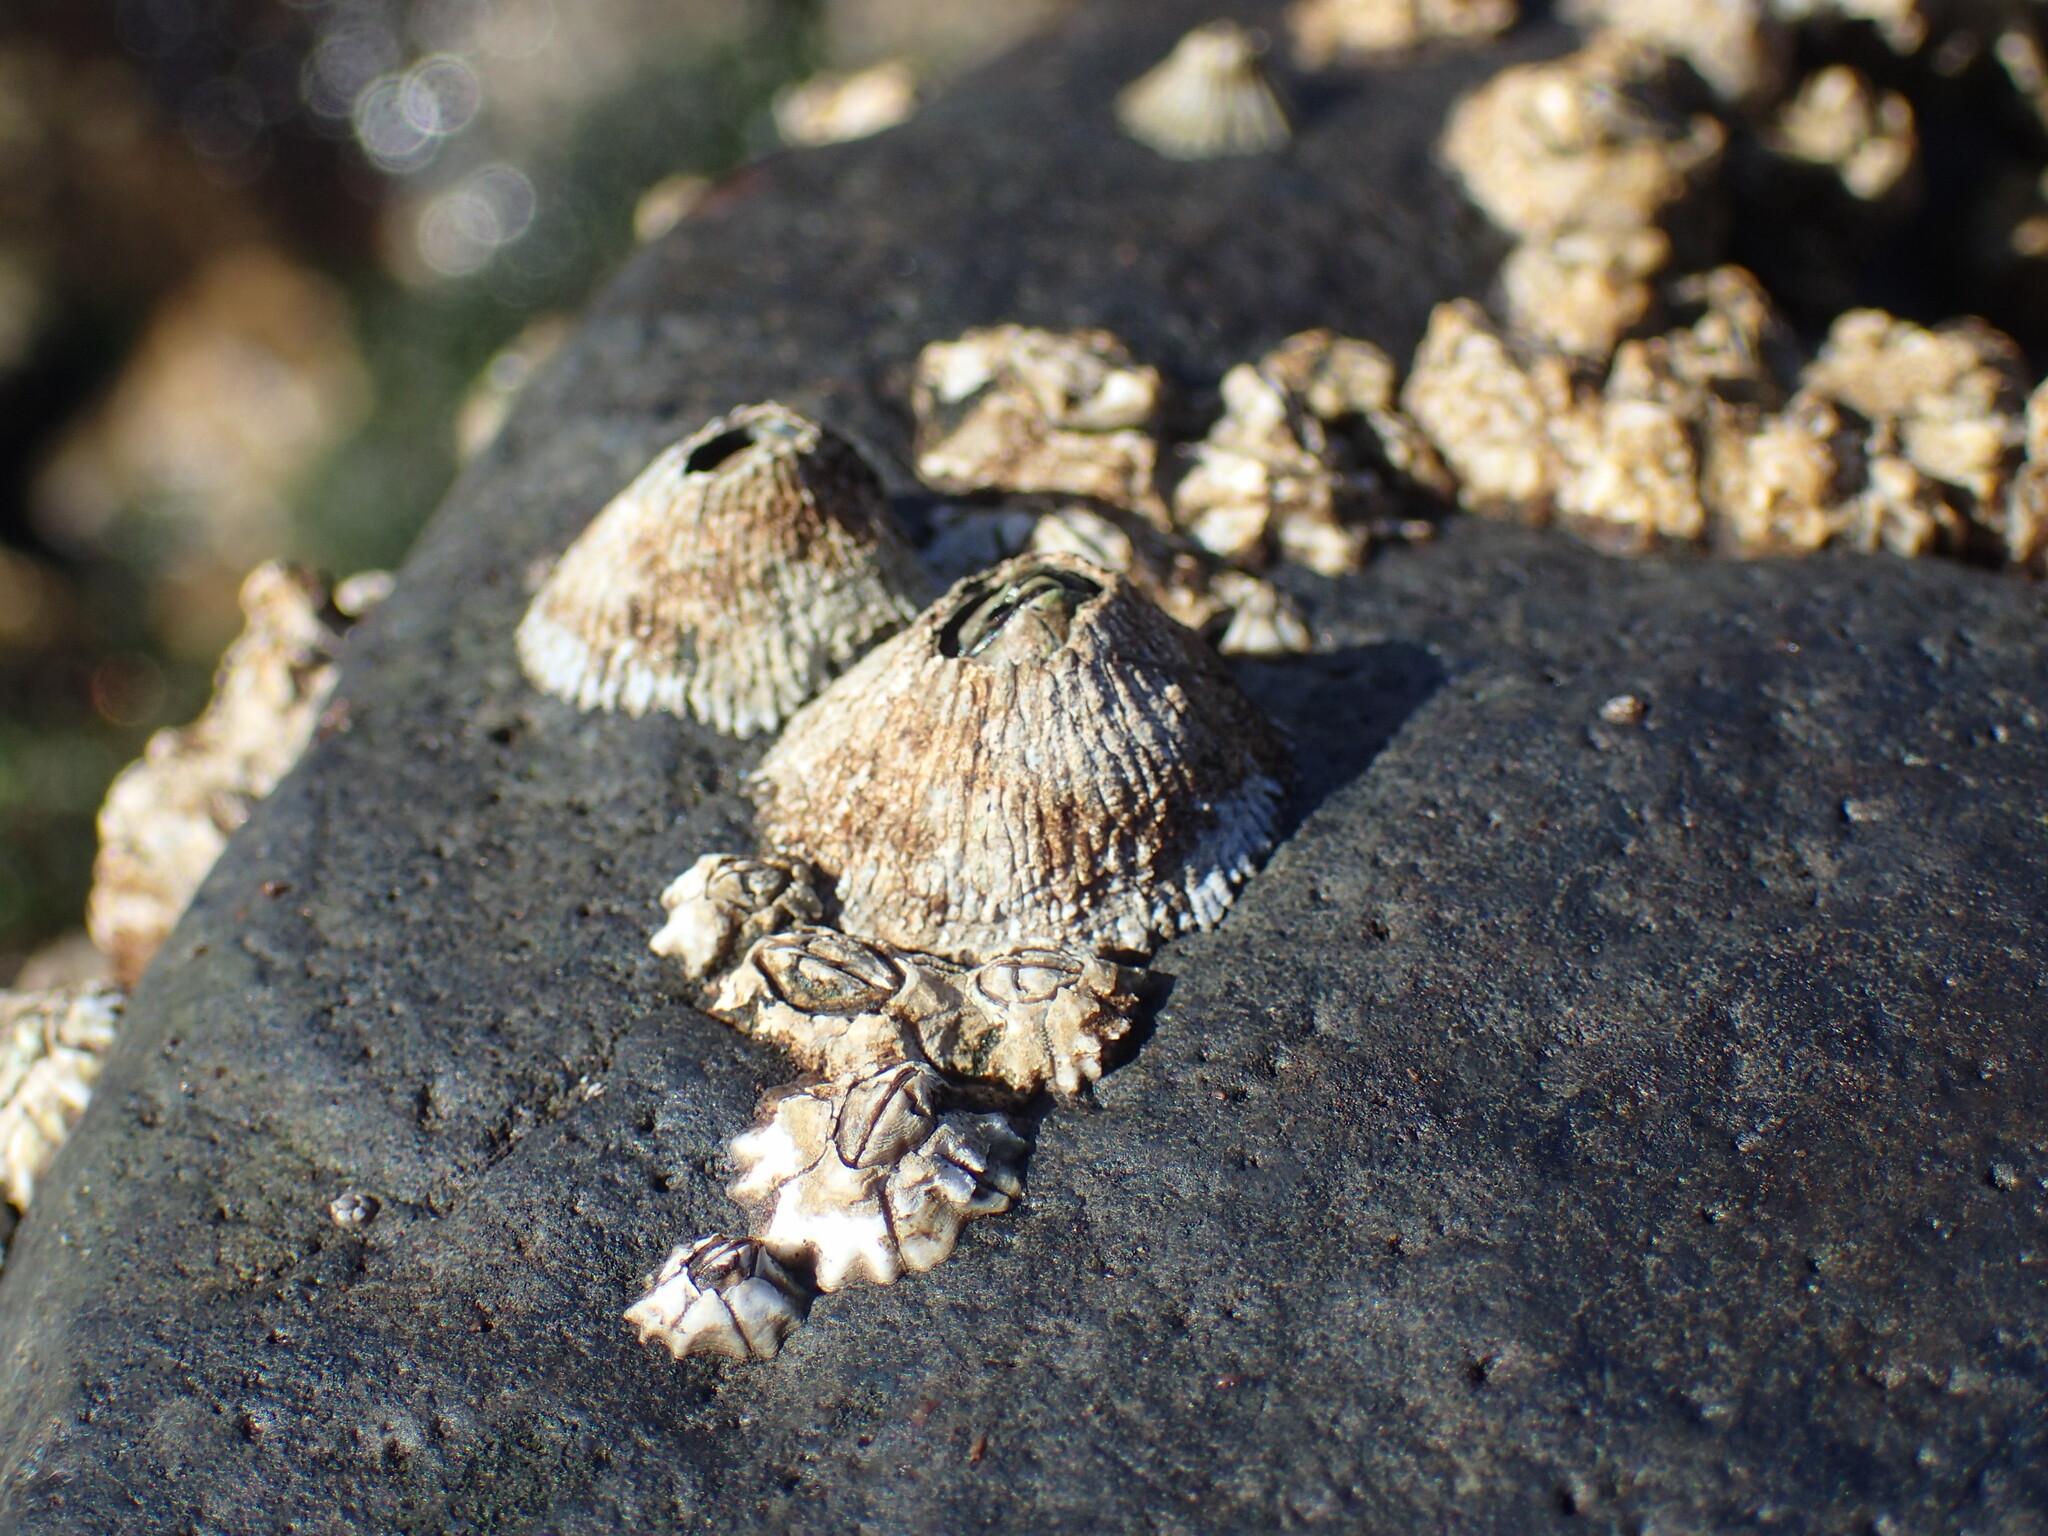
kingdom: Animalia
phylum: Arthropoda
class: Maxillopoda
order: Sessilia
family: Tetraclitidae
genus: Tetraclita
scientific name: Tetraclita serrata
